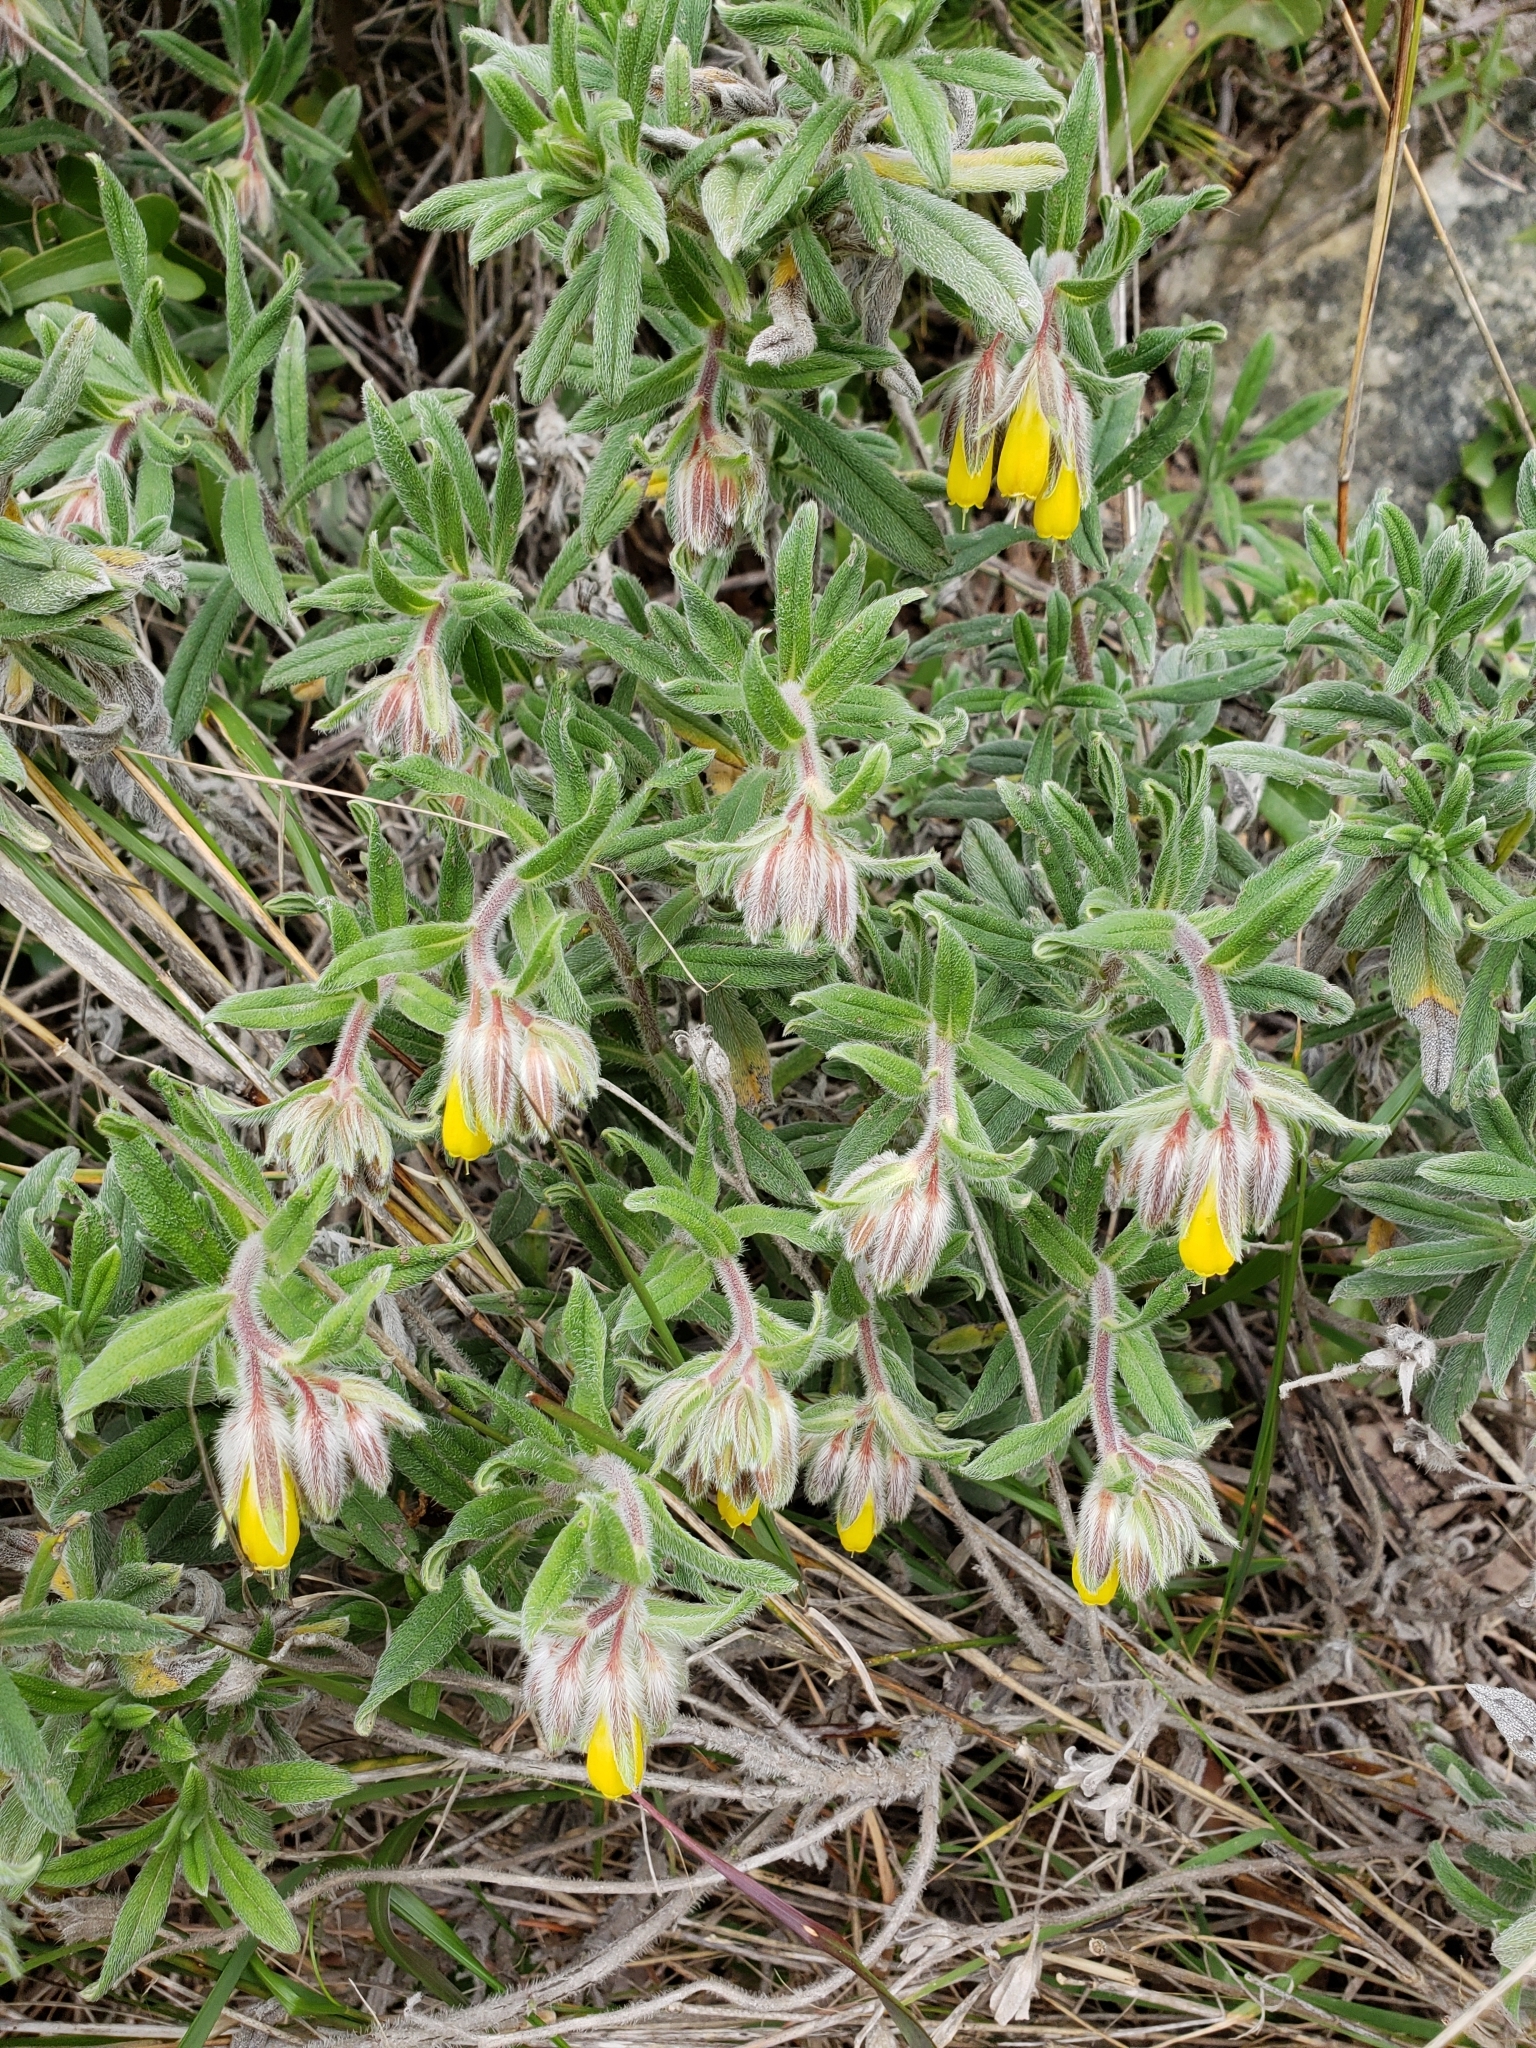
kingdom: Plantae
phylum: Tracheophyta
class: Magnoliopsida
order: Boraginales
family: Boraginaceae
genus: Onosma
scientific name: Onosma frutescens
